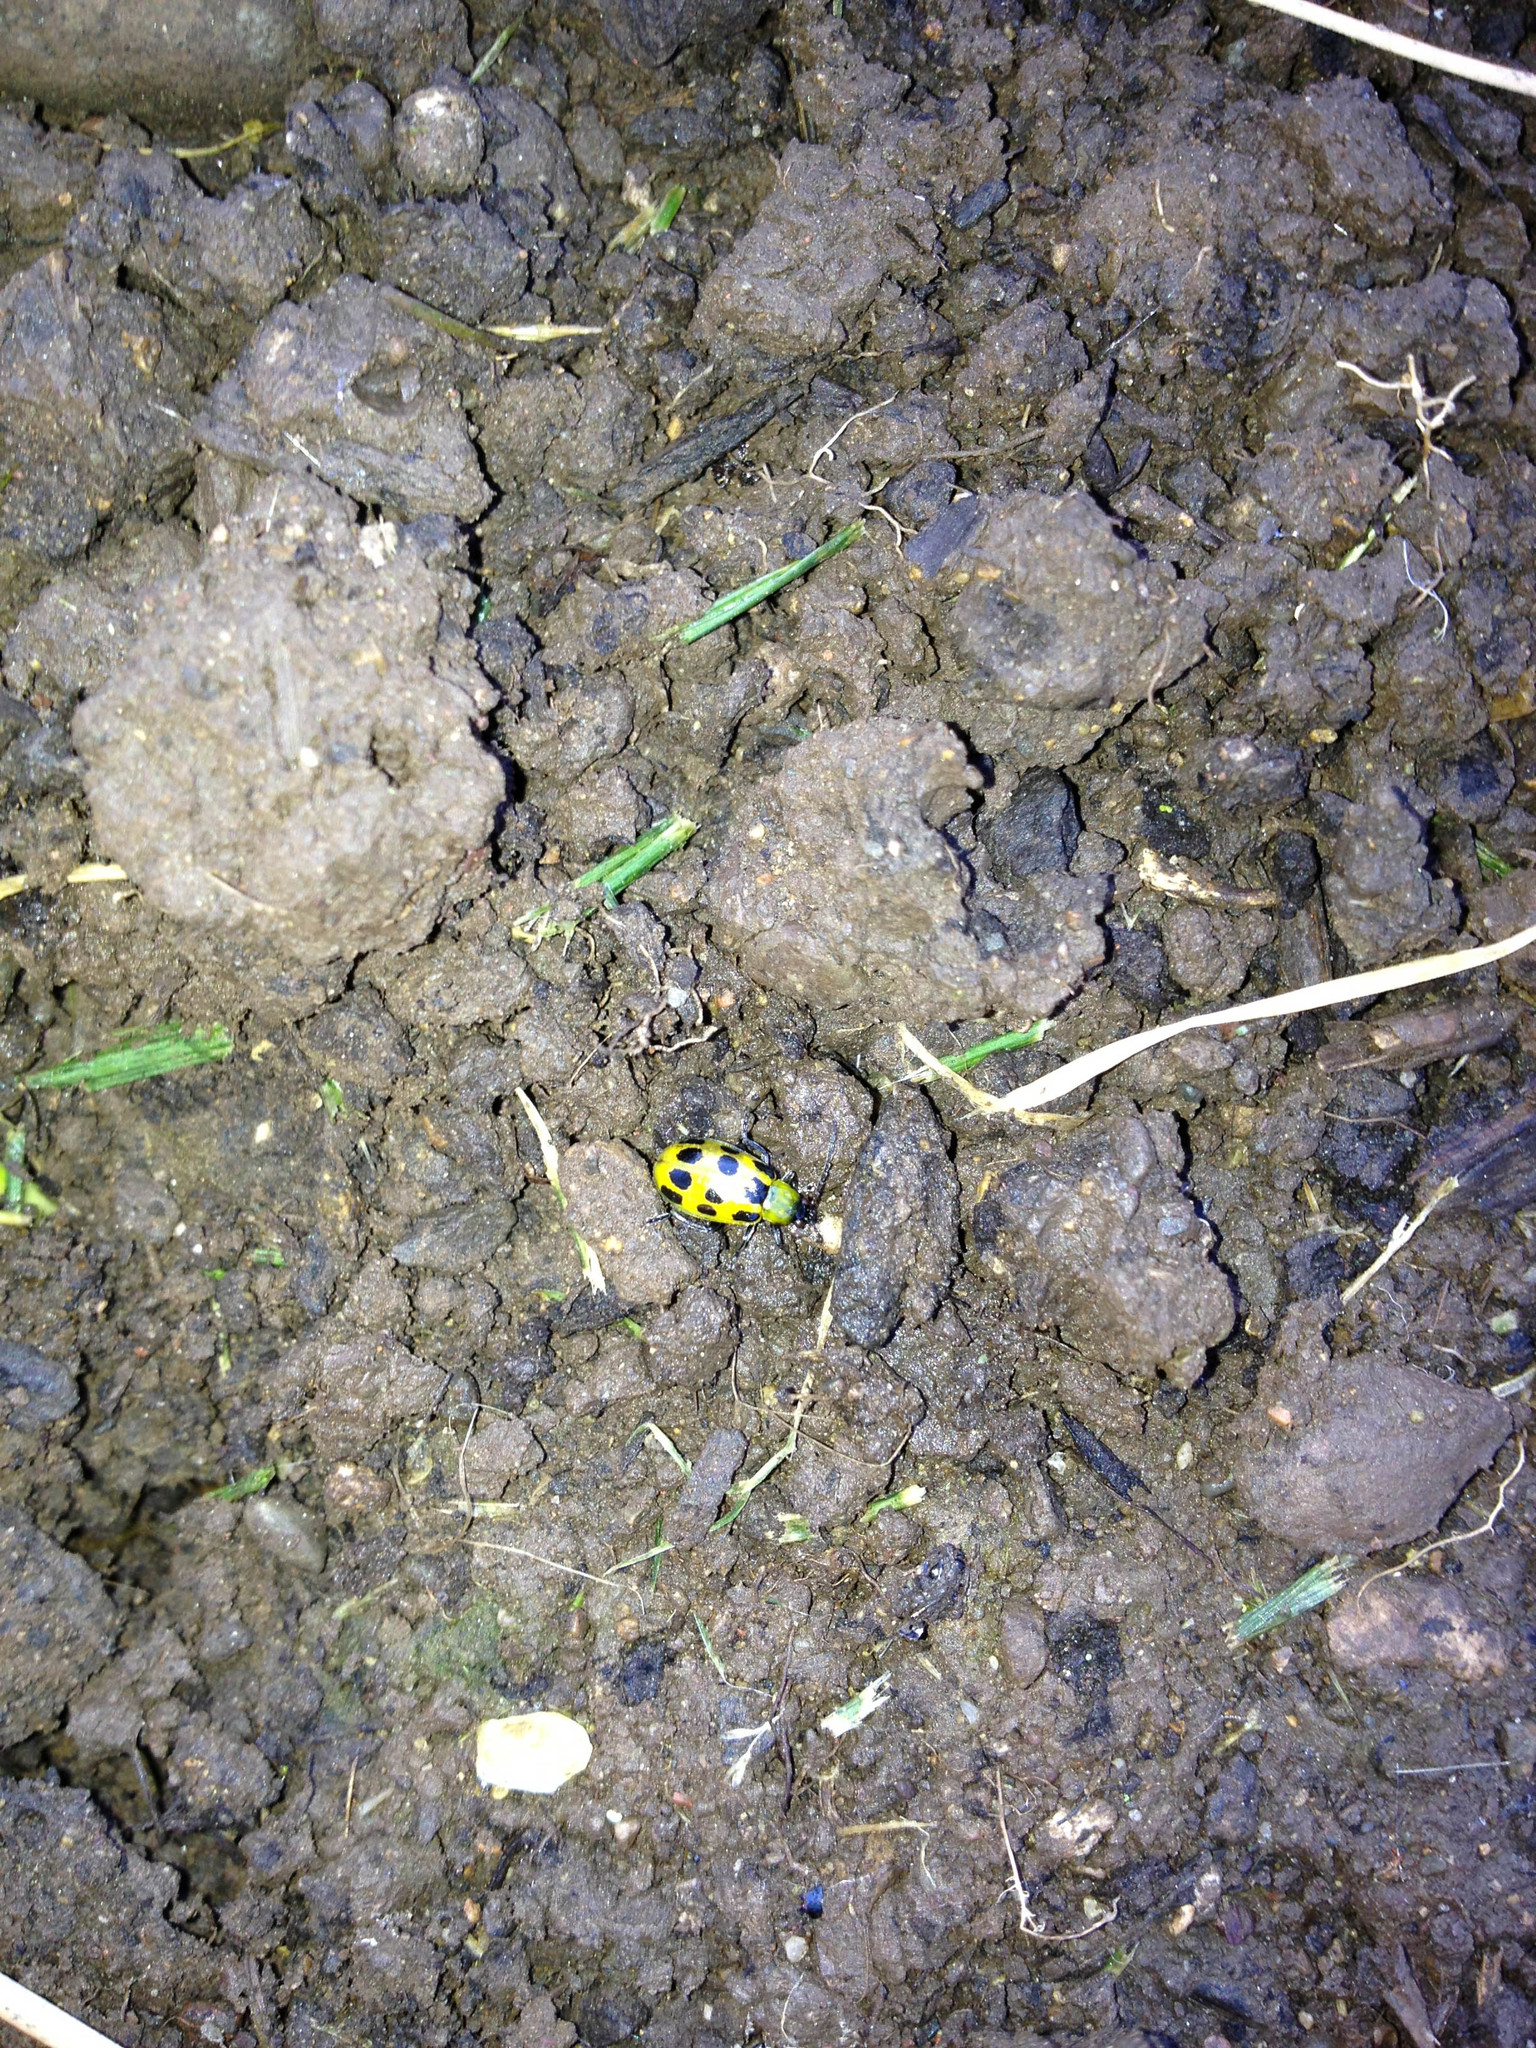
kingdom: Animalia
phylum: Arthropoda
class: Insecta
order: Coleoptera
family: Chrysomelidae
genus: Diabrotica
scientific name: Diabrotica undecimpunctata
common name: Spotted cucumber beetle
